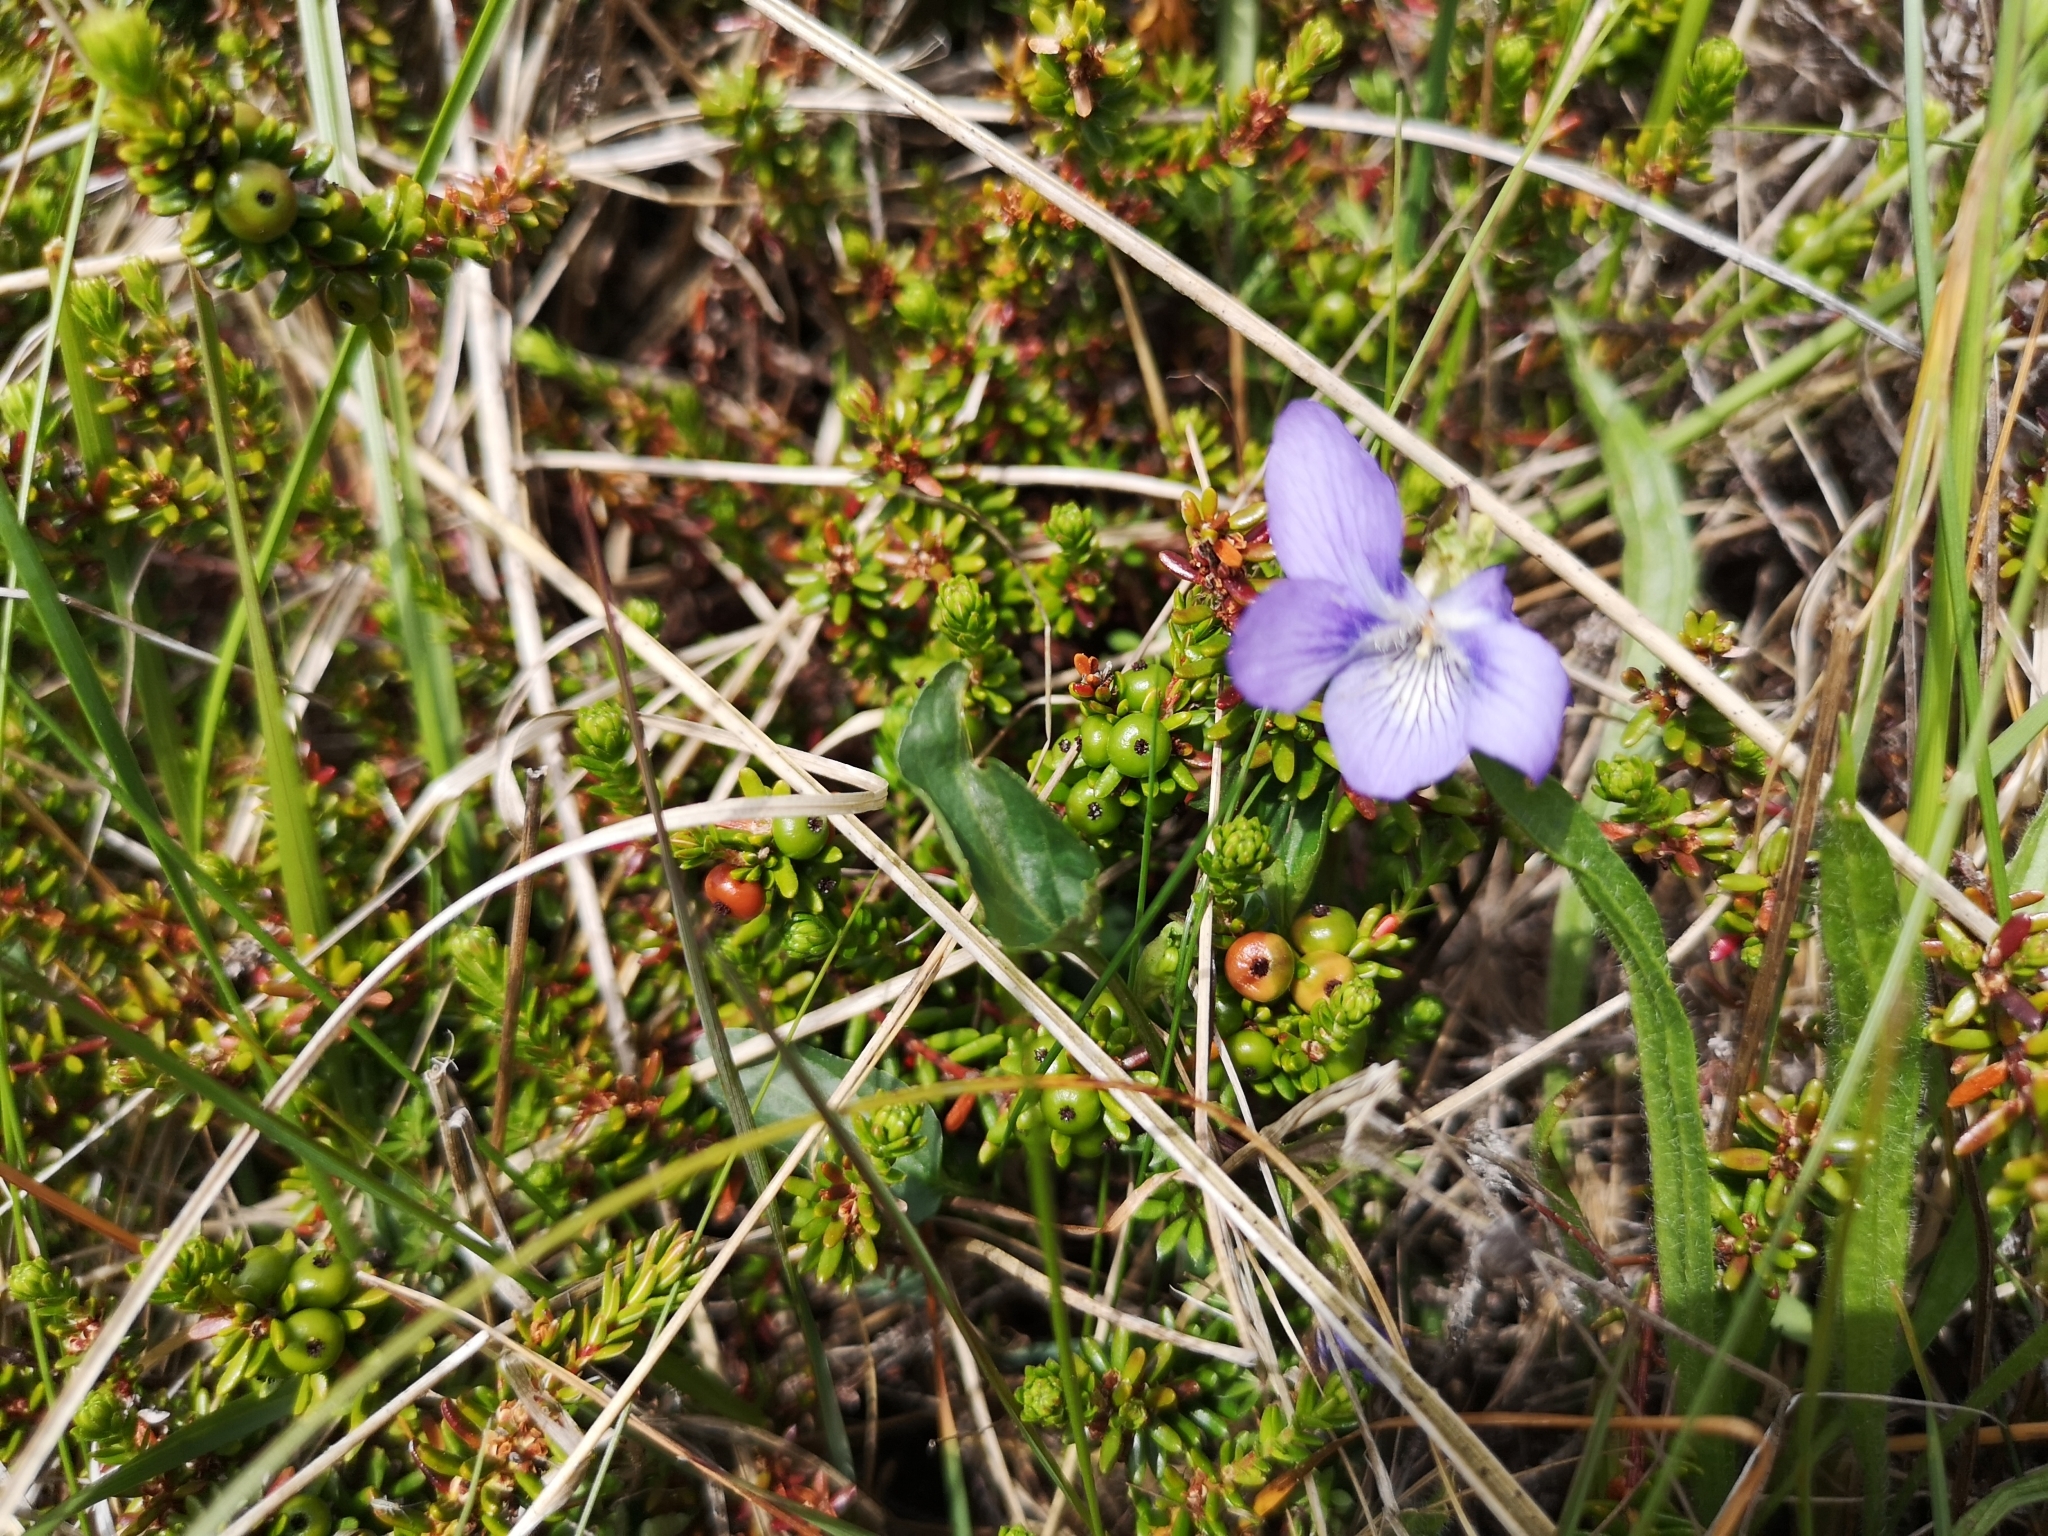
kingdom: Plantae
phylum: Tracheophyta
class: Magnoliopsida
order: Malpighiales
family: Violaceae
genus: Viola
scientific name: Viola canina
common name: Heath dog-violet
